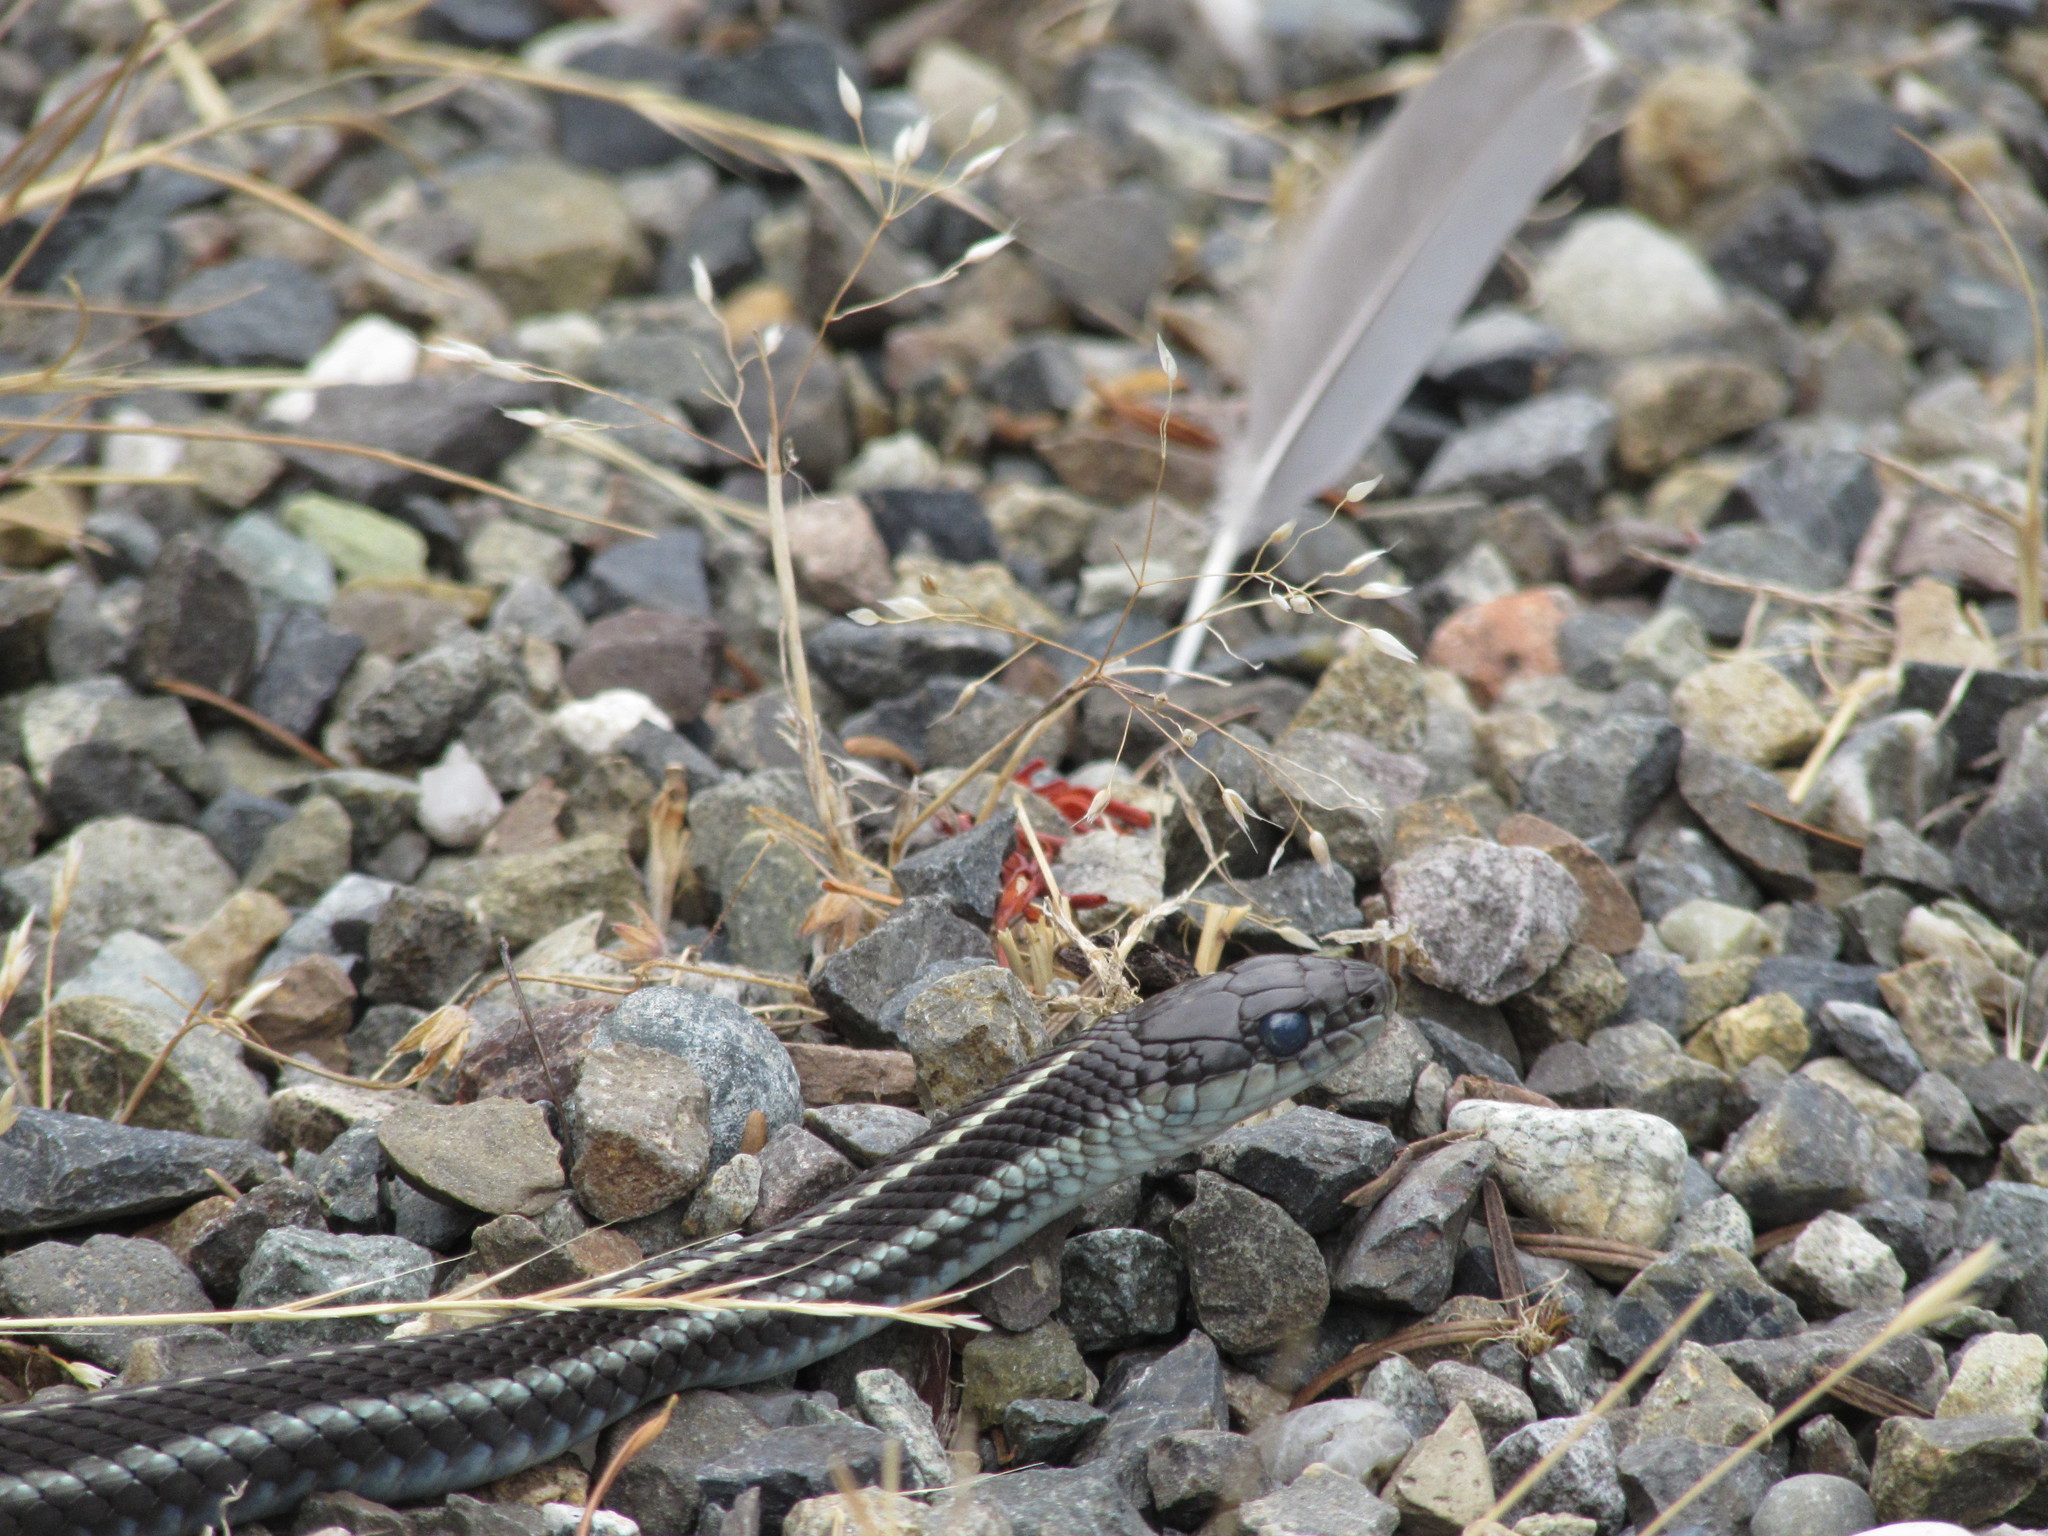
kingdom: Animalia
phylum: Chordata
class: Squamata
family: Colubridae
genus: Thamnophis
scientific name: Thamnophis sirtalis
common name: Common garter snake
